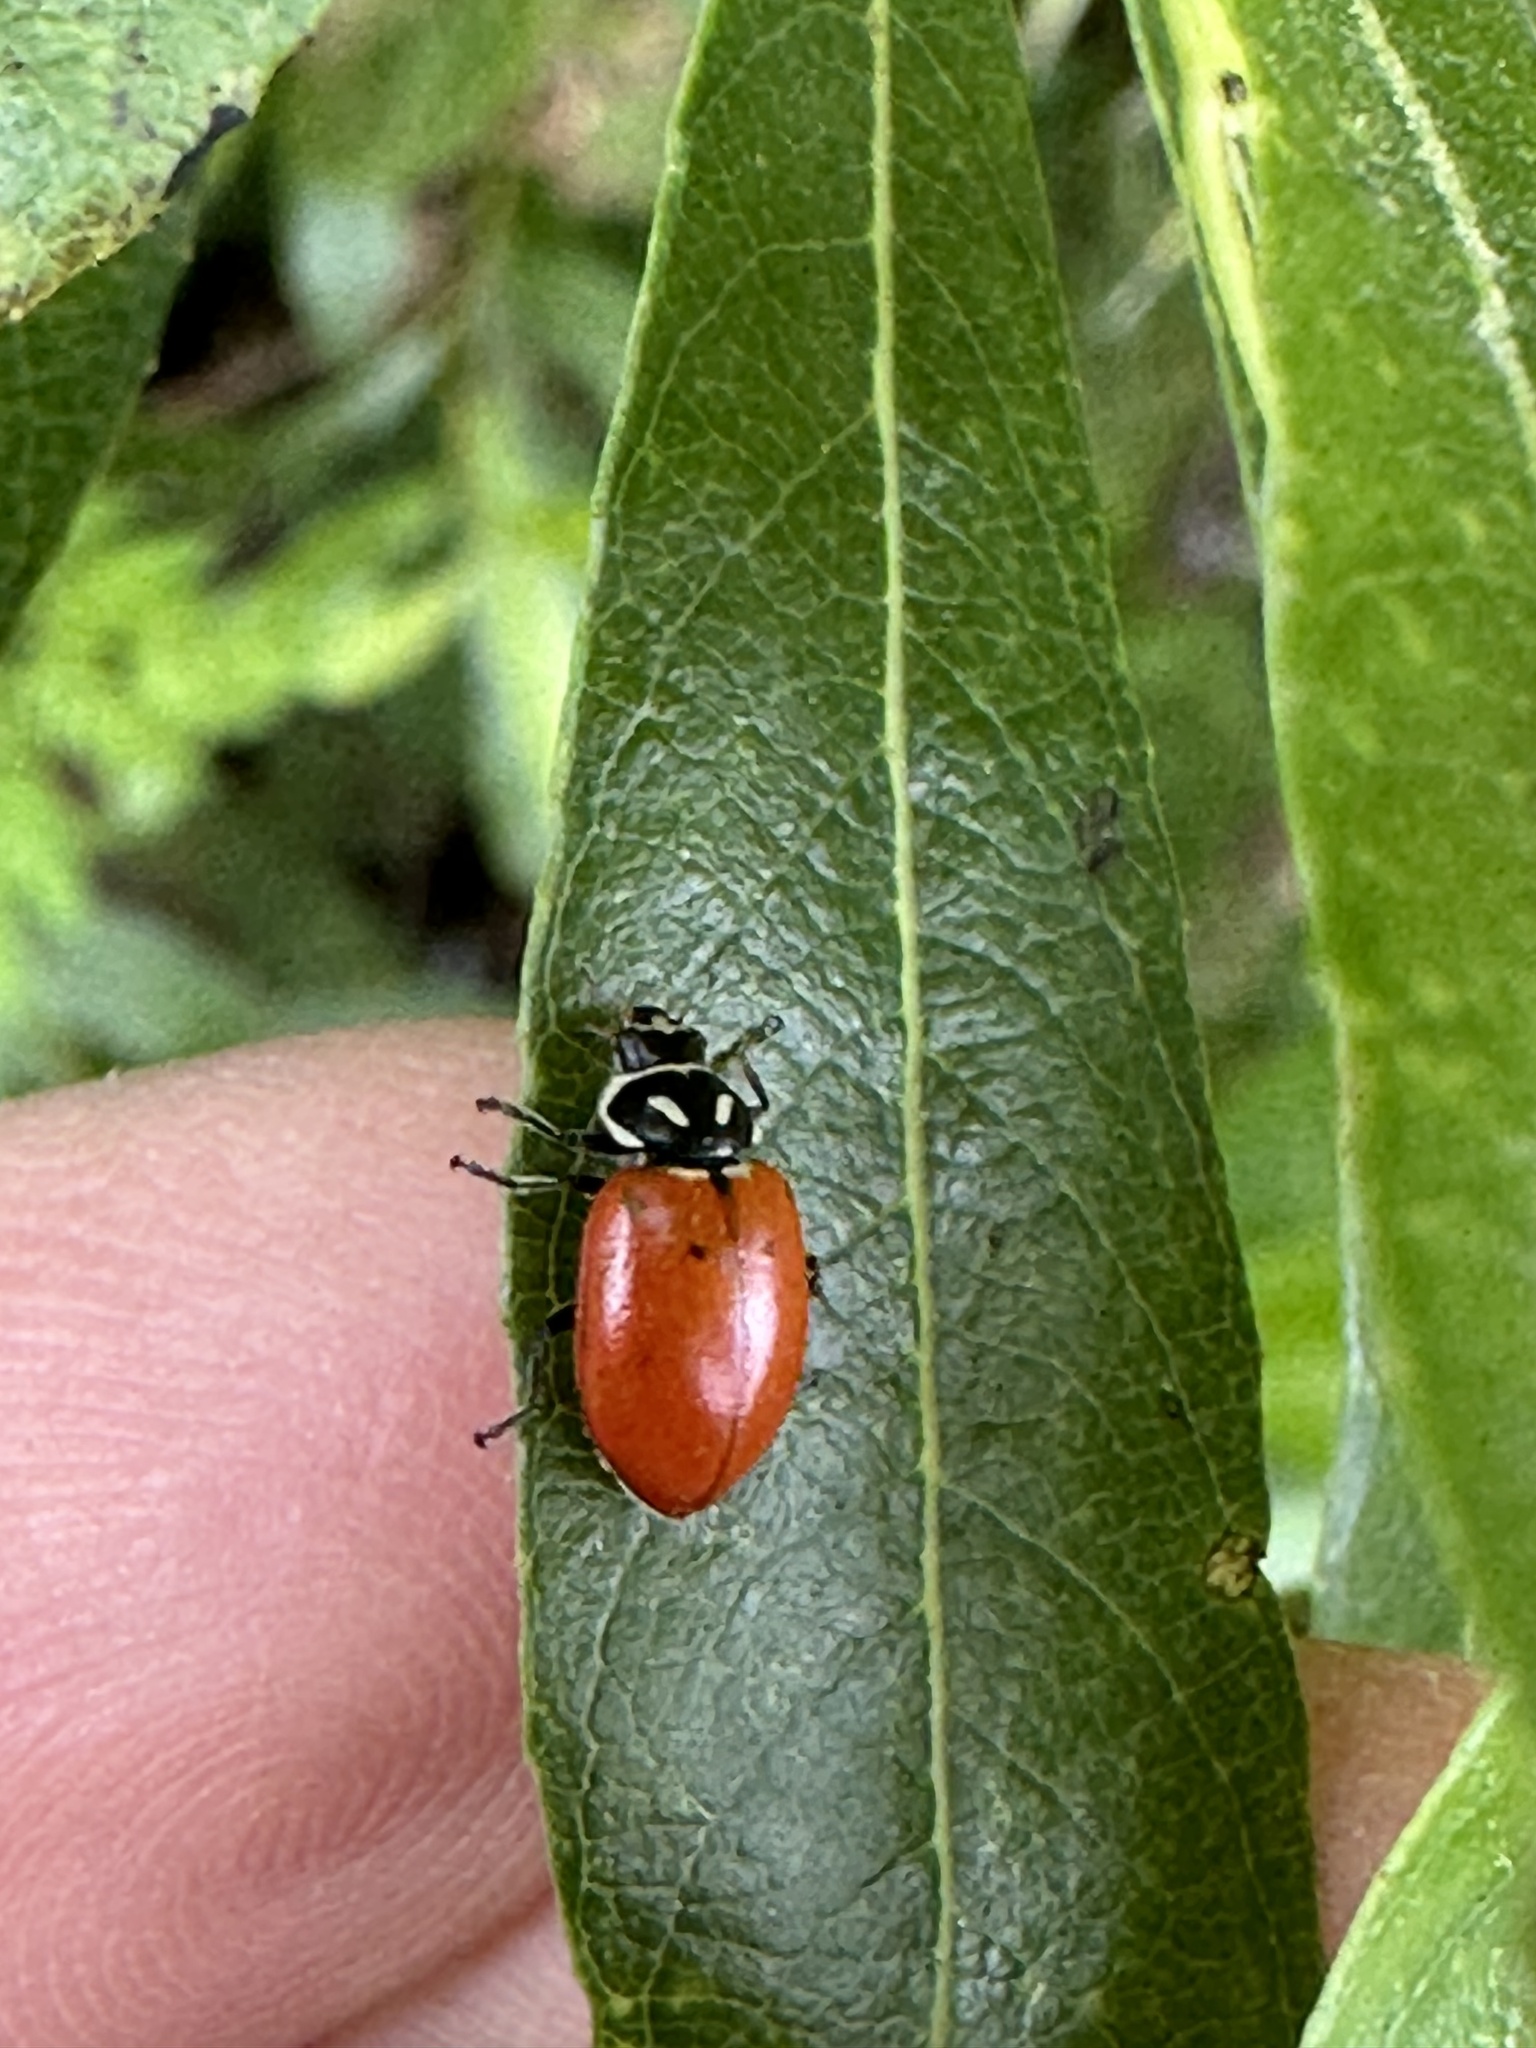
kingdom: Animalia
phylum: Arthropoda
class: Insecta
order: Coleoptera
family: Coccinellidae
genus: Hippodamia
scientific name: Hippodamia convergens
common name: Convergent lady beetle
